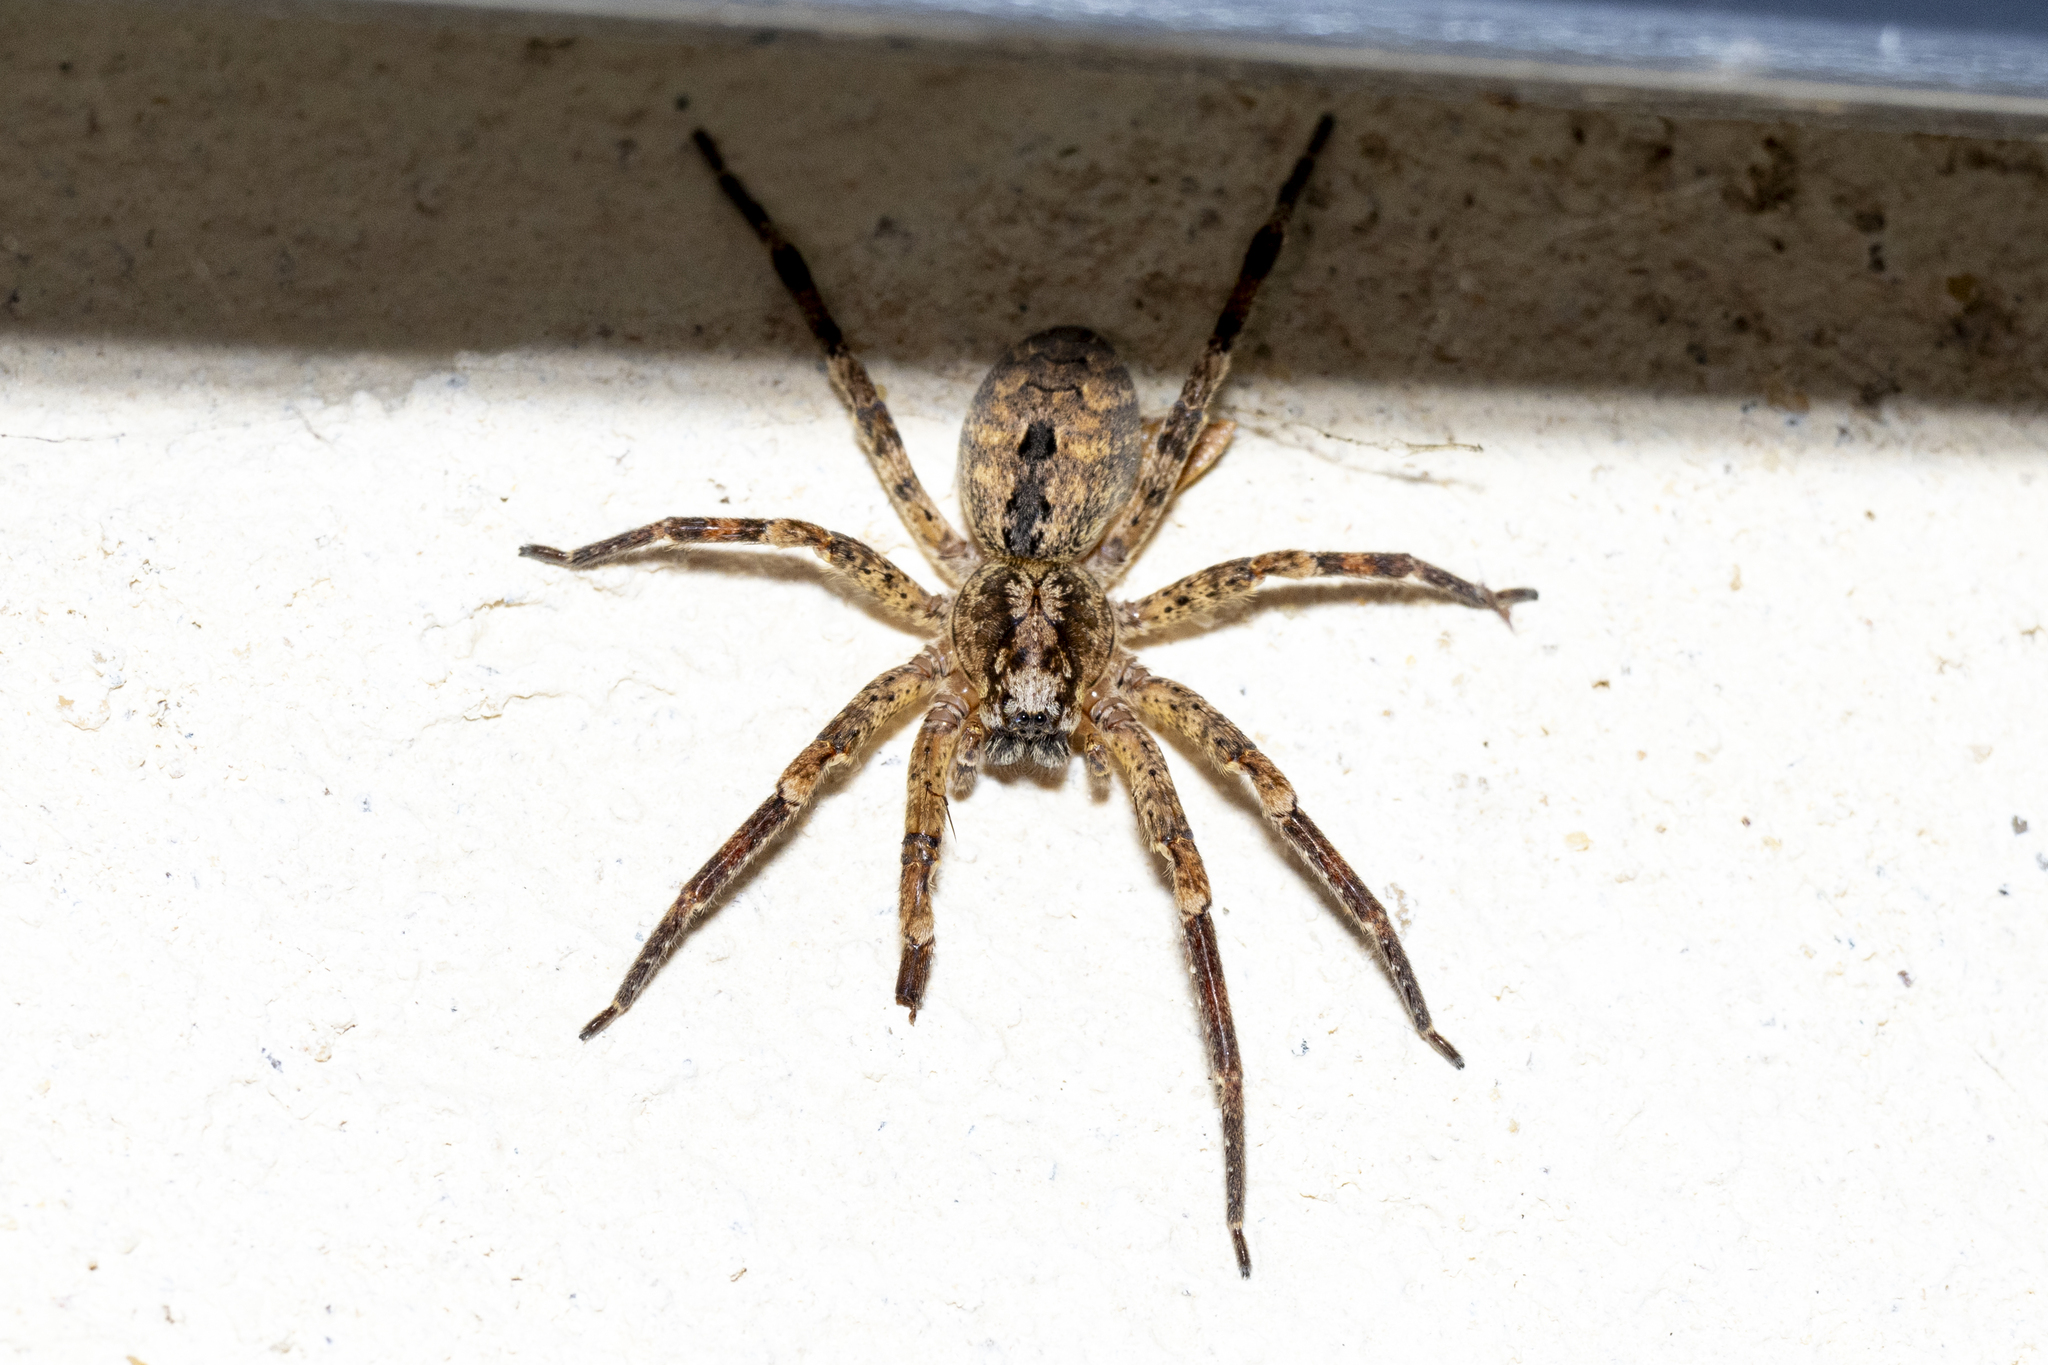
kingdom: Animalia
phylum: Arthropoda
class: Arachnida
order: Araneae
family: Zoropsidae
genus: Zoropsis
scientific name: Zoropsis spinimana
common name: Zoropsid spider
